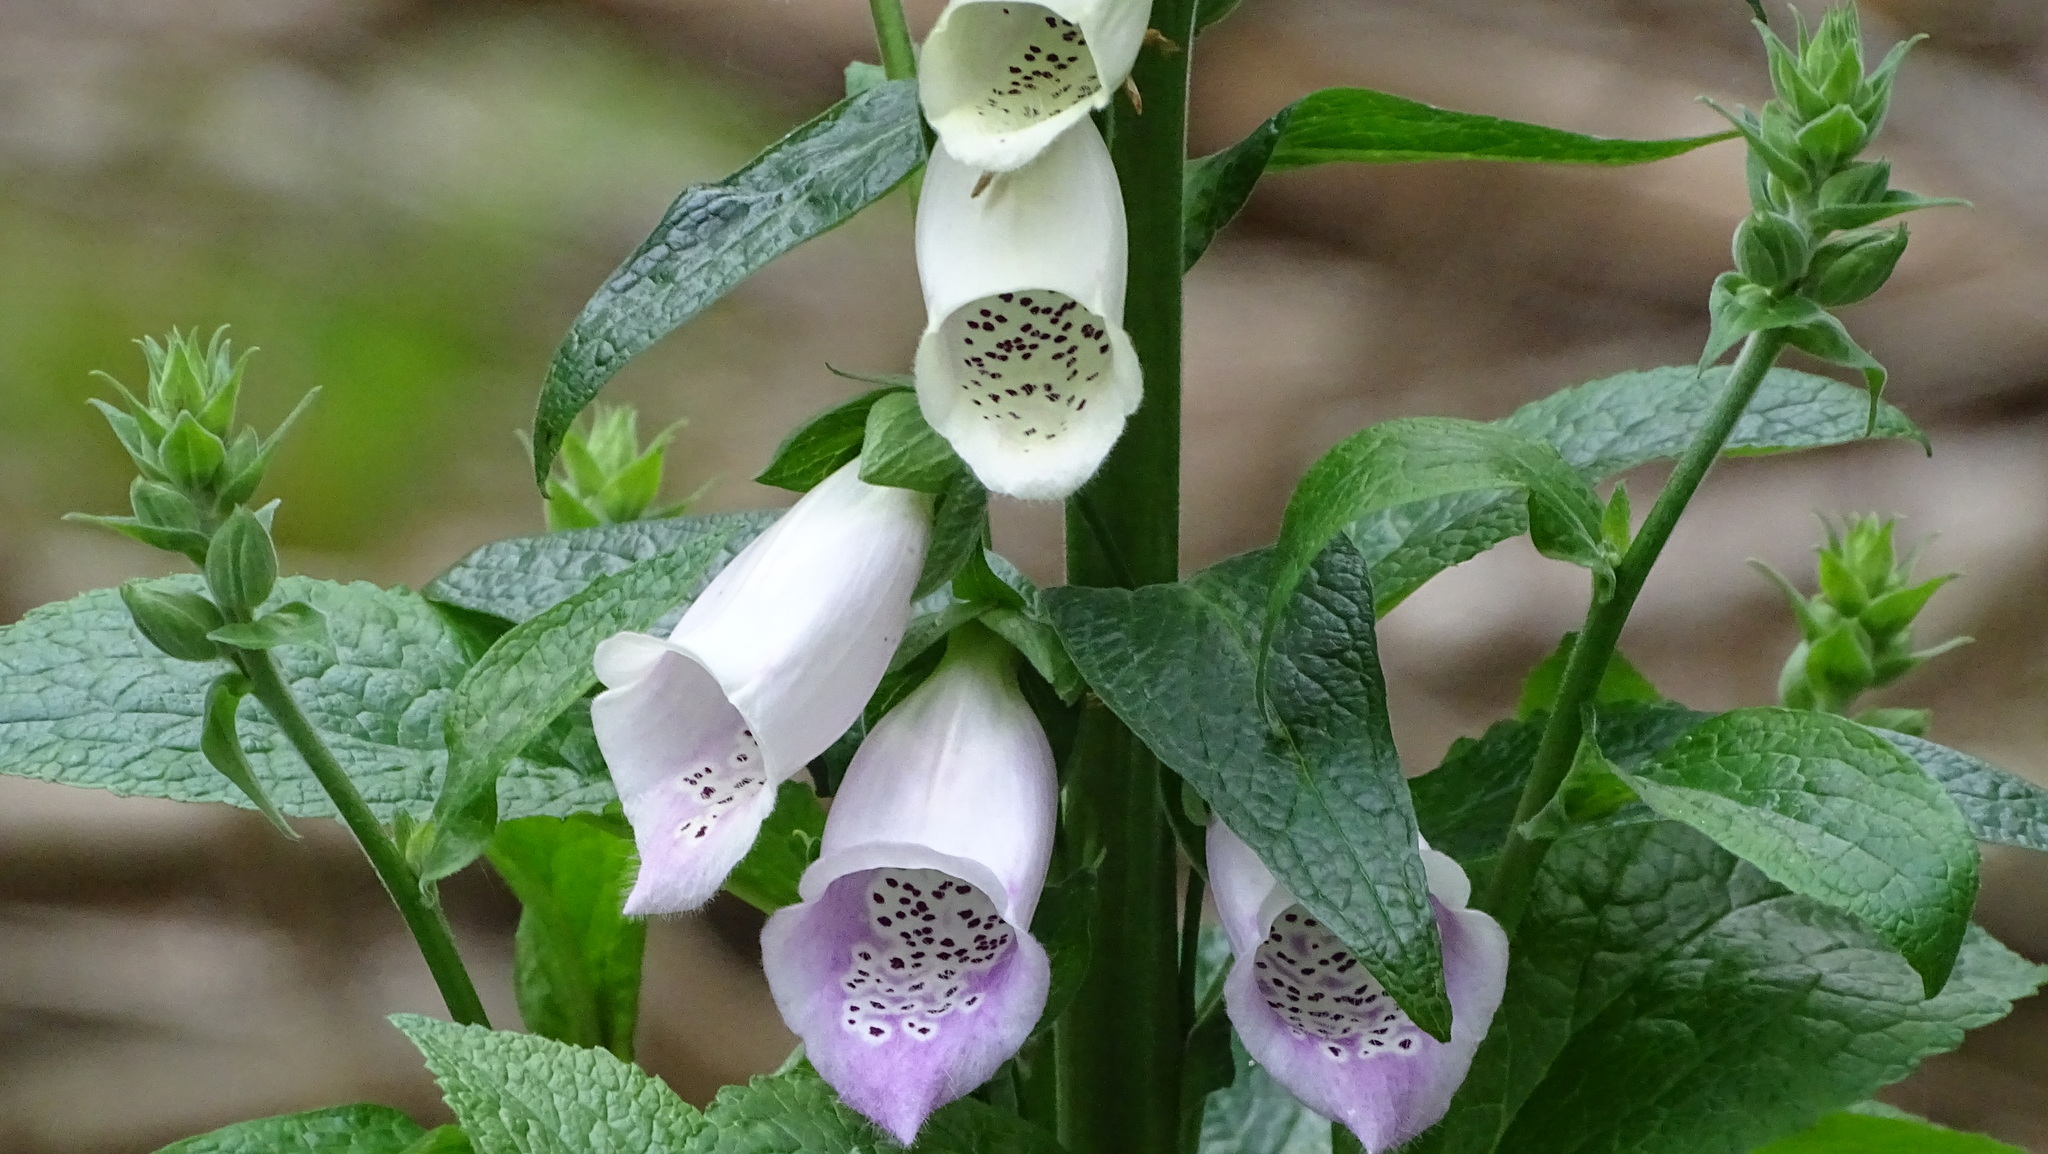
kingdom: Plantae
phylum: Tracheophyta
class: Magnoliopsida
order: Lamiales
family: Plantaginaceae
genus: Digitalis
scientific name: Digitalis purpurea
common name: Foxglove
